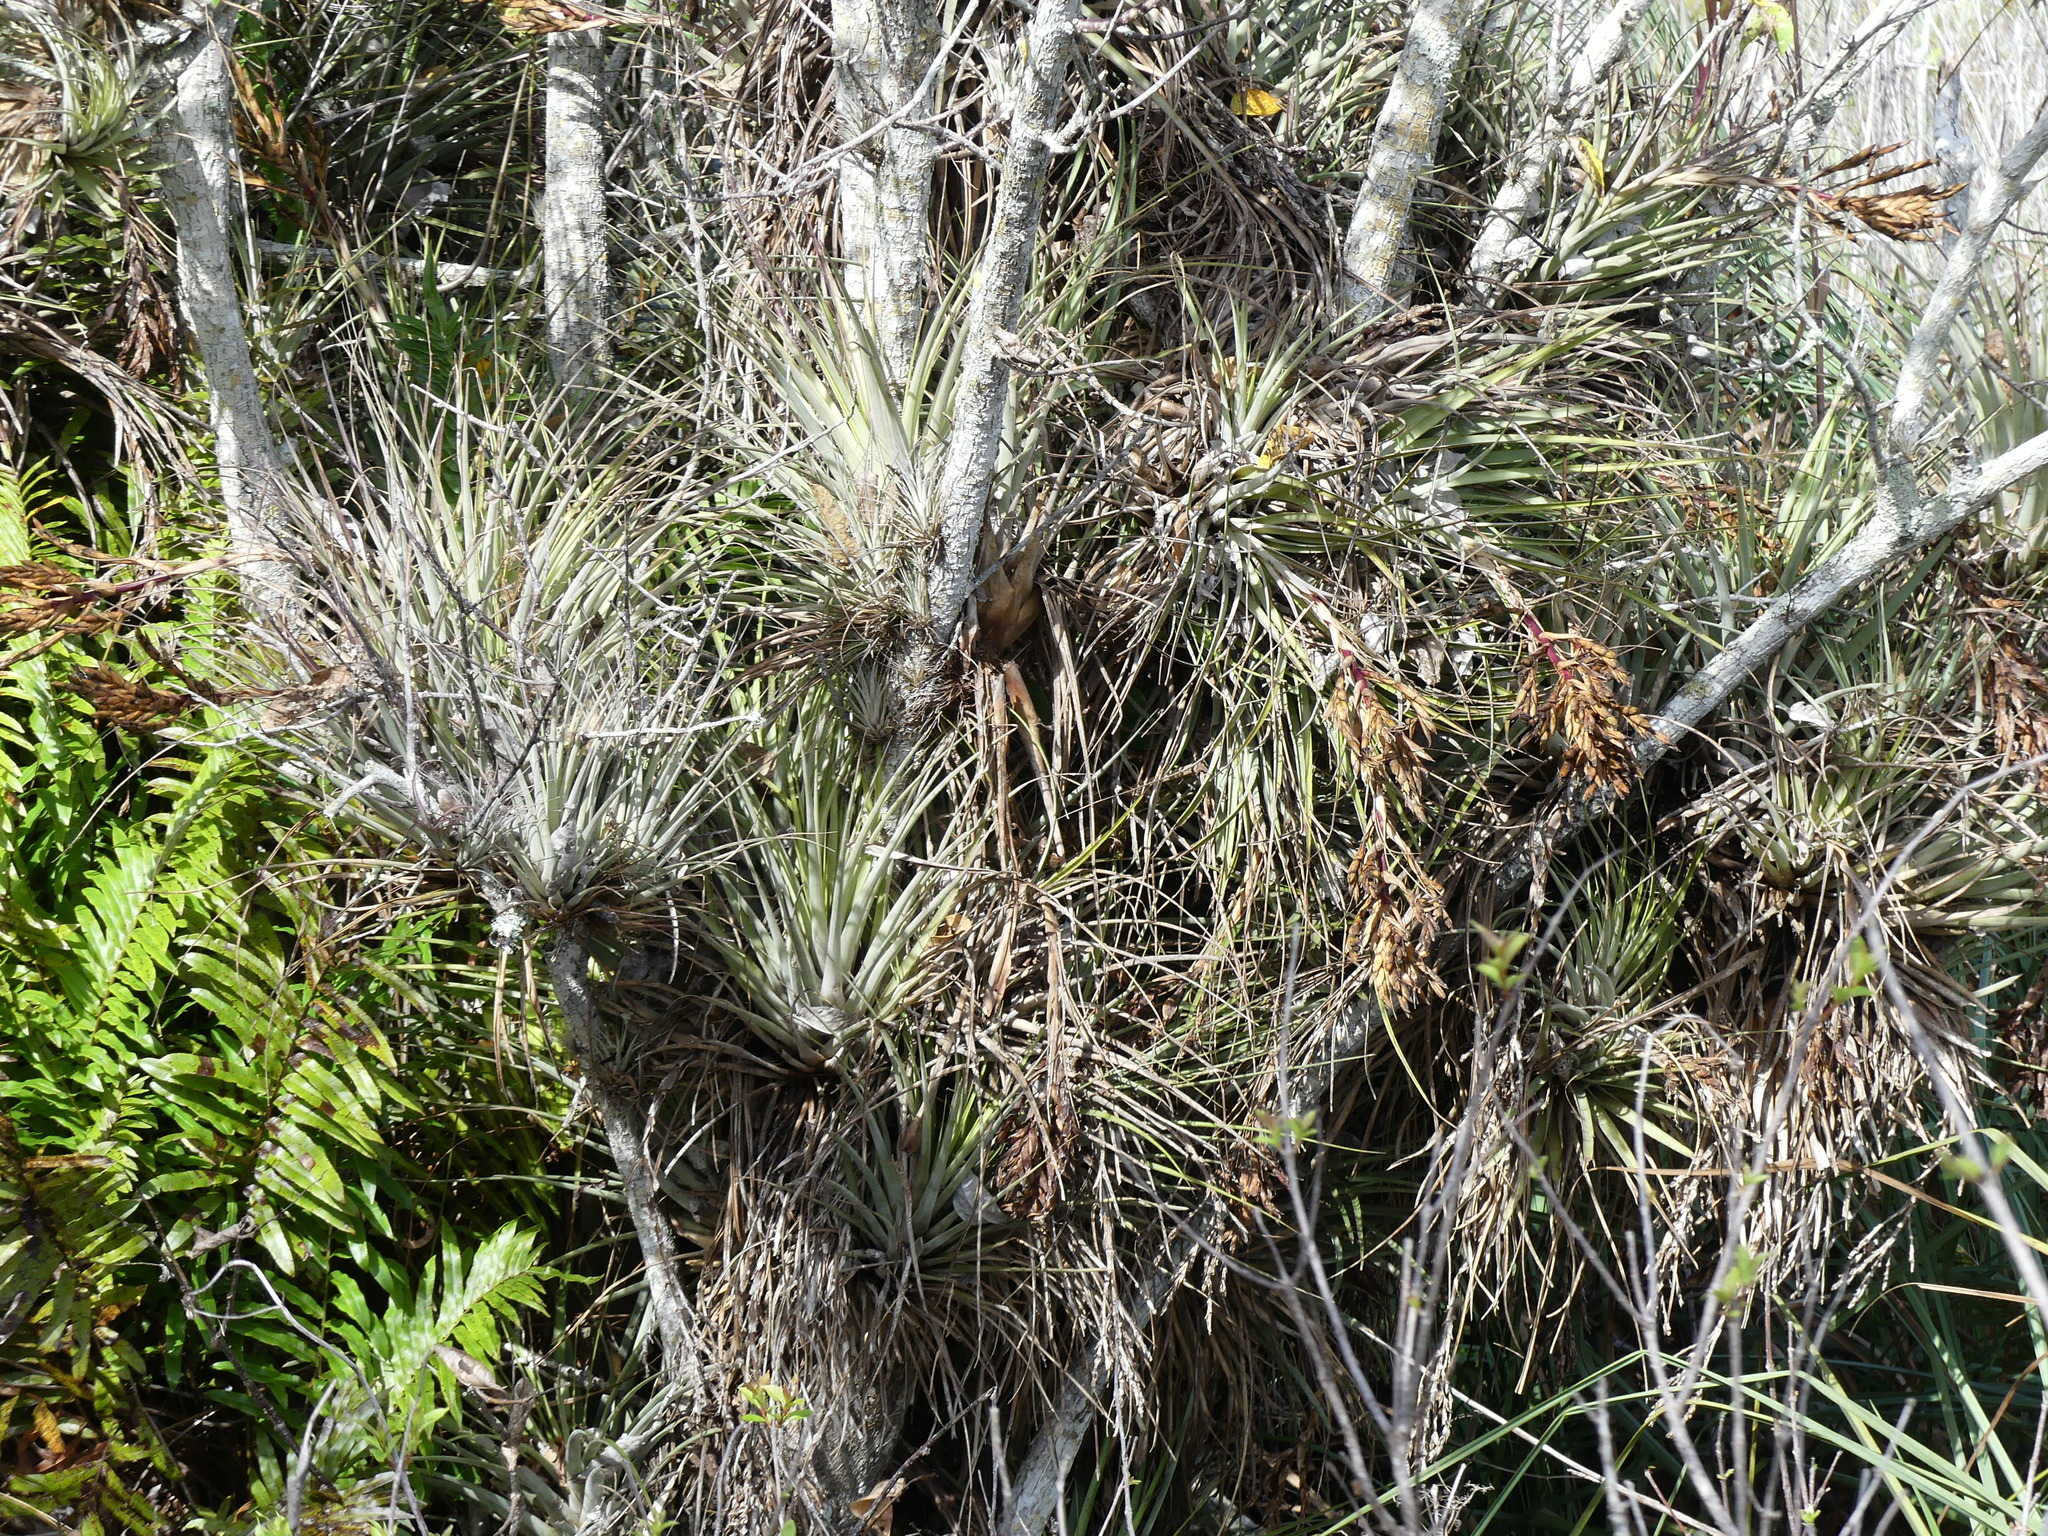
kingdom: Plantae
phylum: Tracheophyta
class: Liliopsida
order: Poales
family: Bromeliaceae
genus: Tillandsia
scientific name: Tillandsia fasciculata
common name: Giant airplant
